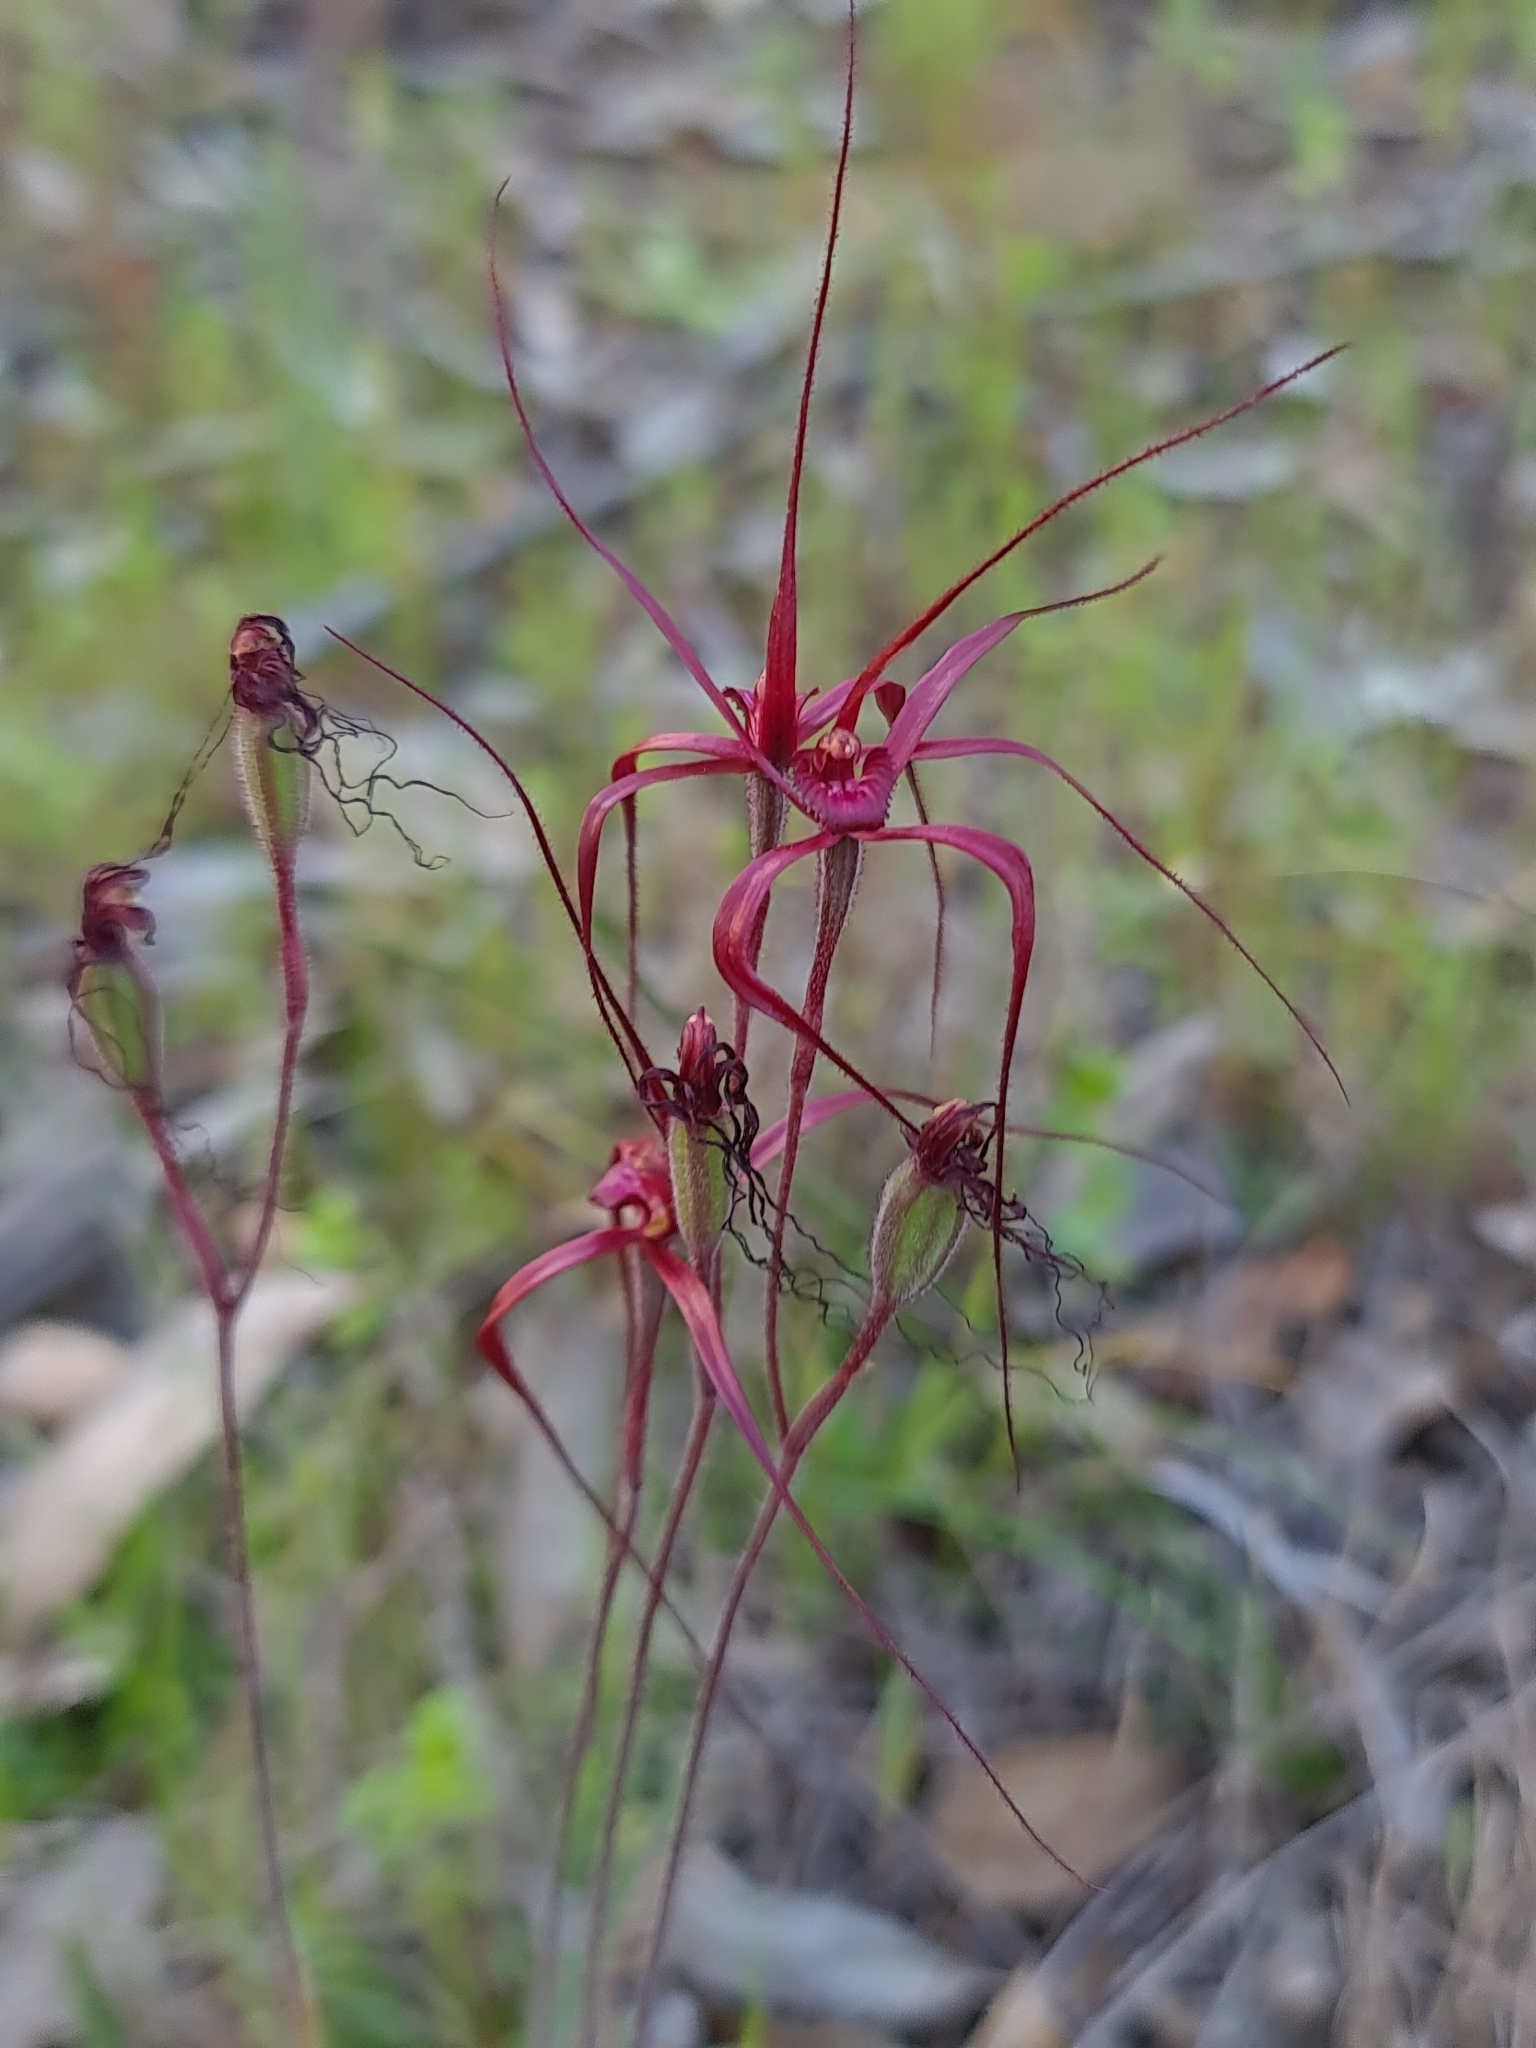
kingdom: Plantae
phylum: Tracheophyta
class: Liliopsida
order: Asparagales
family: Orchidaceae
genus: Caladenia
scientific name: Caladenia filifera
